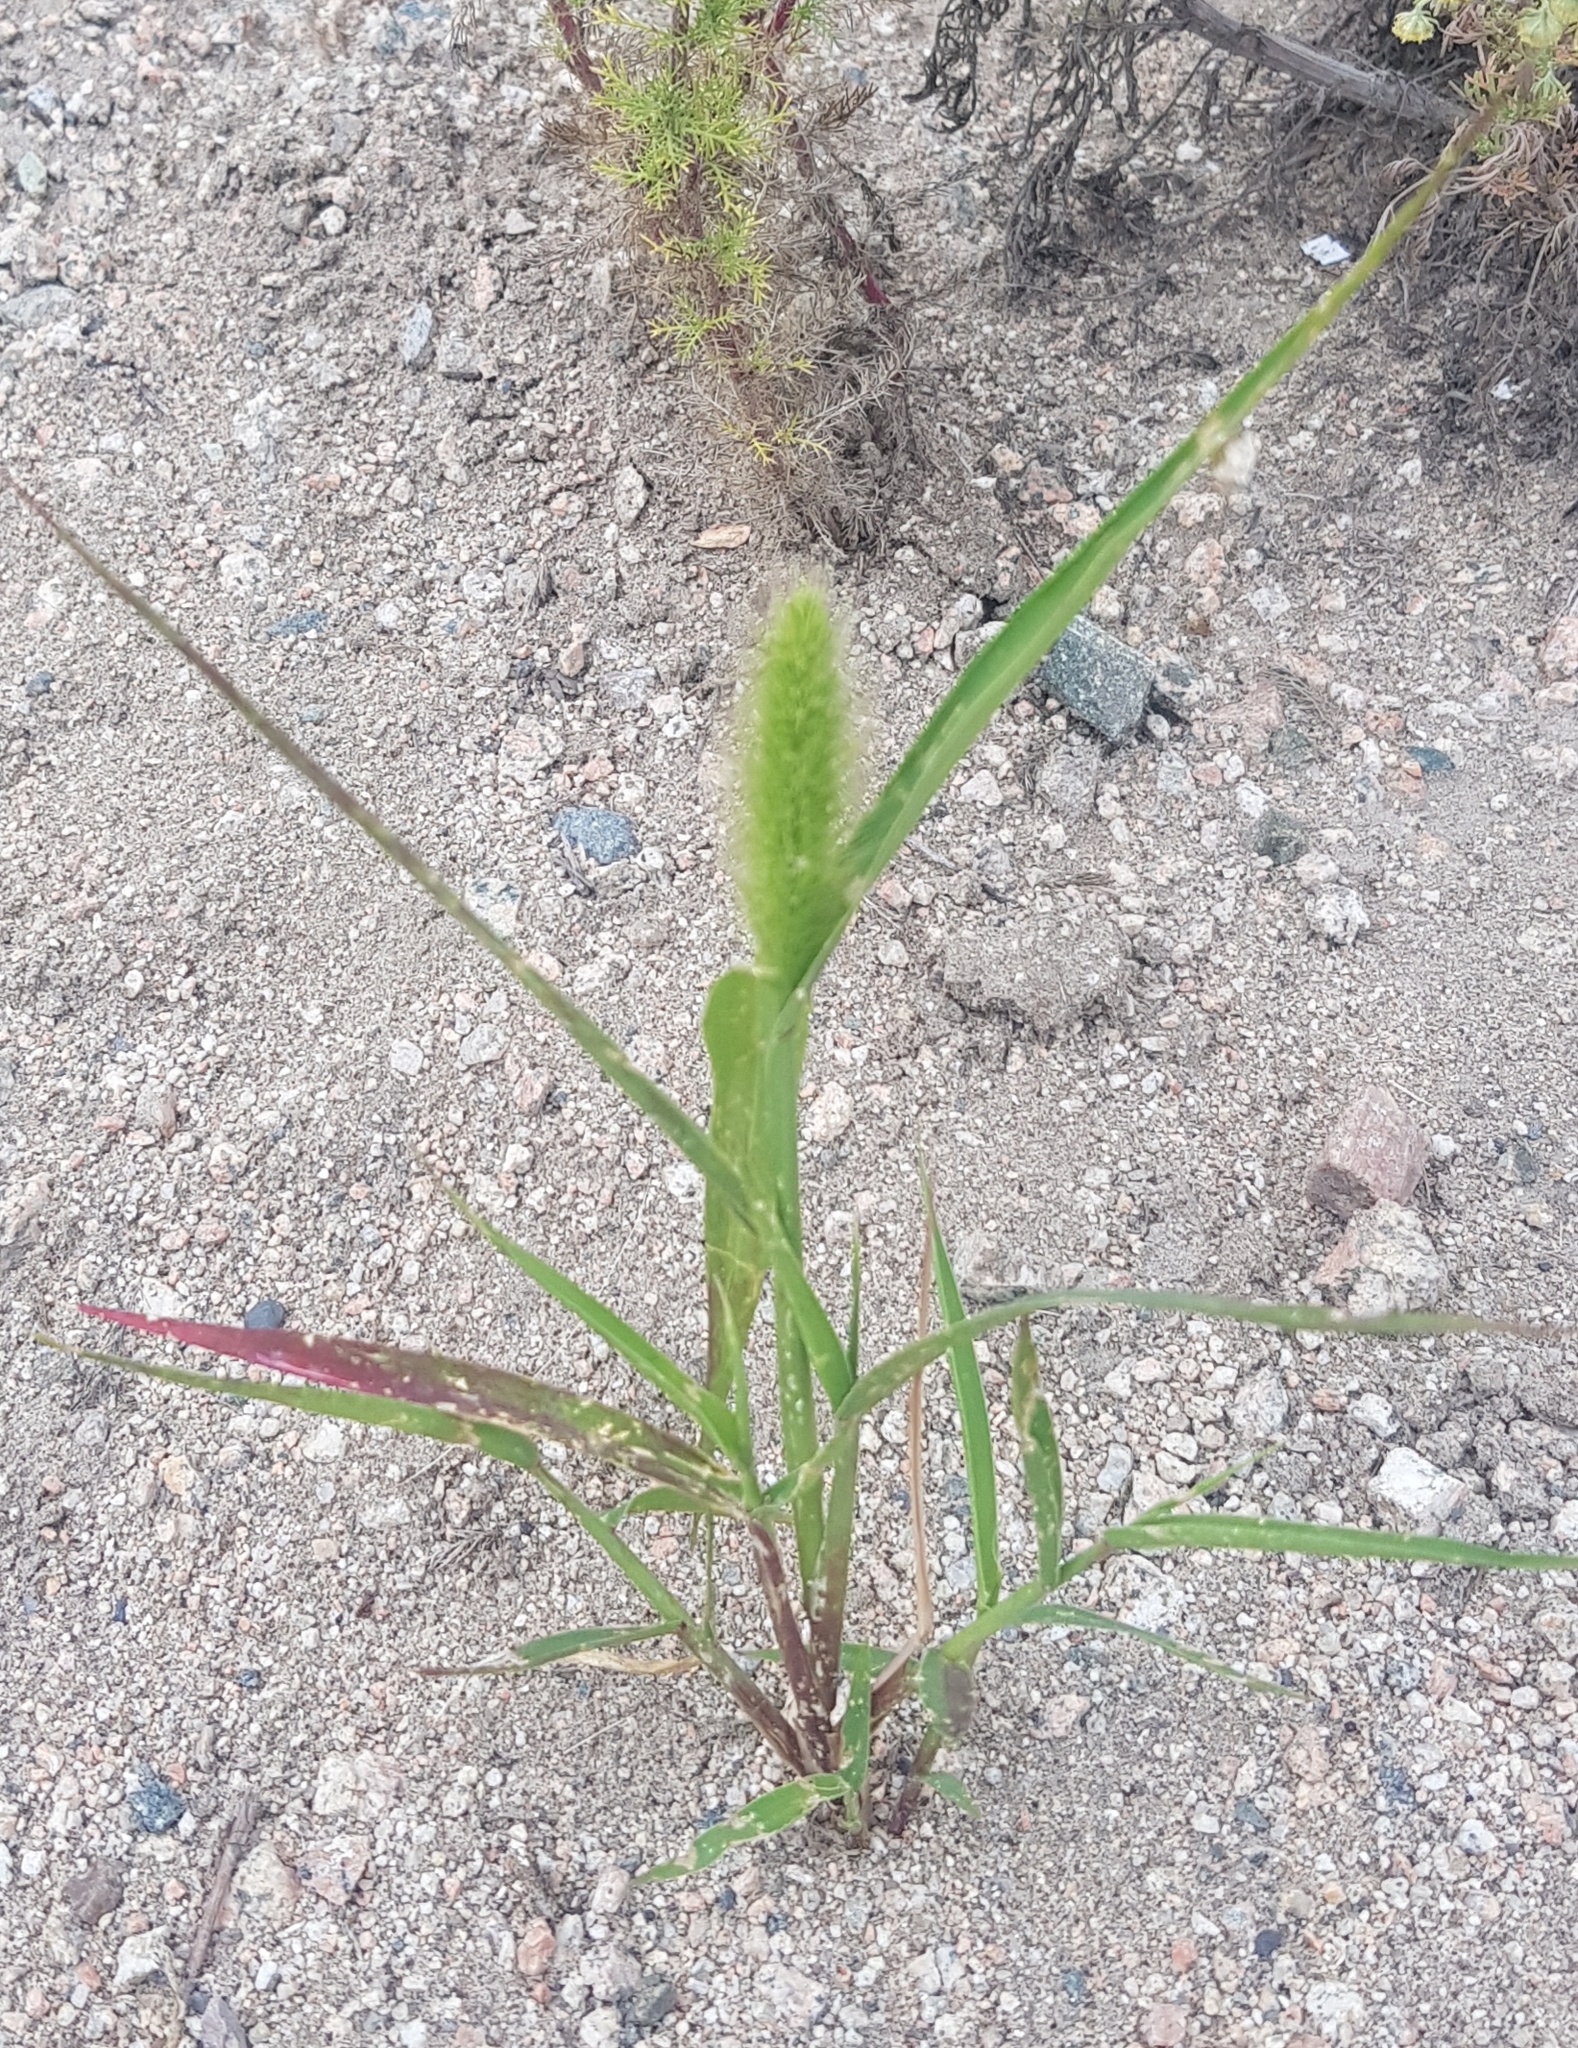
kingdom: Plantae
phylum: Tracheophyta
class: Liliopsida
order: Poales
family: Poaceae
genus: Setaria
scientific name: Setaria viridis
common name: Green bristlegrass
